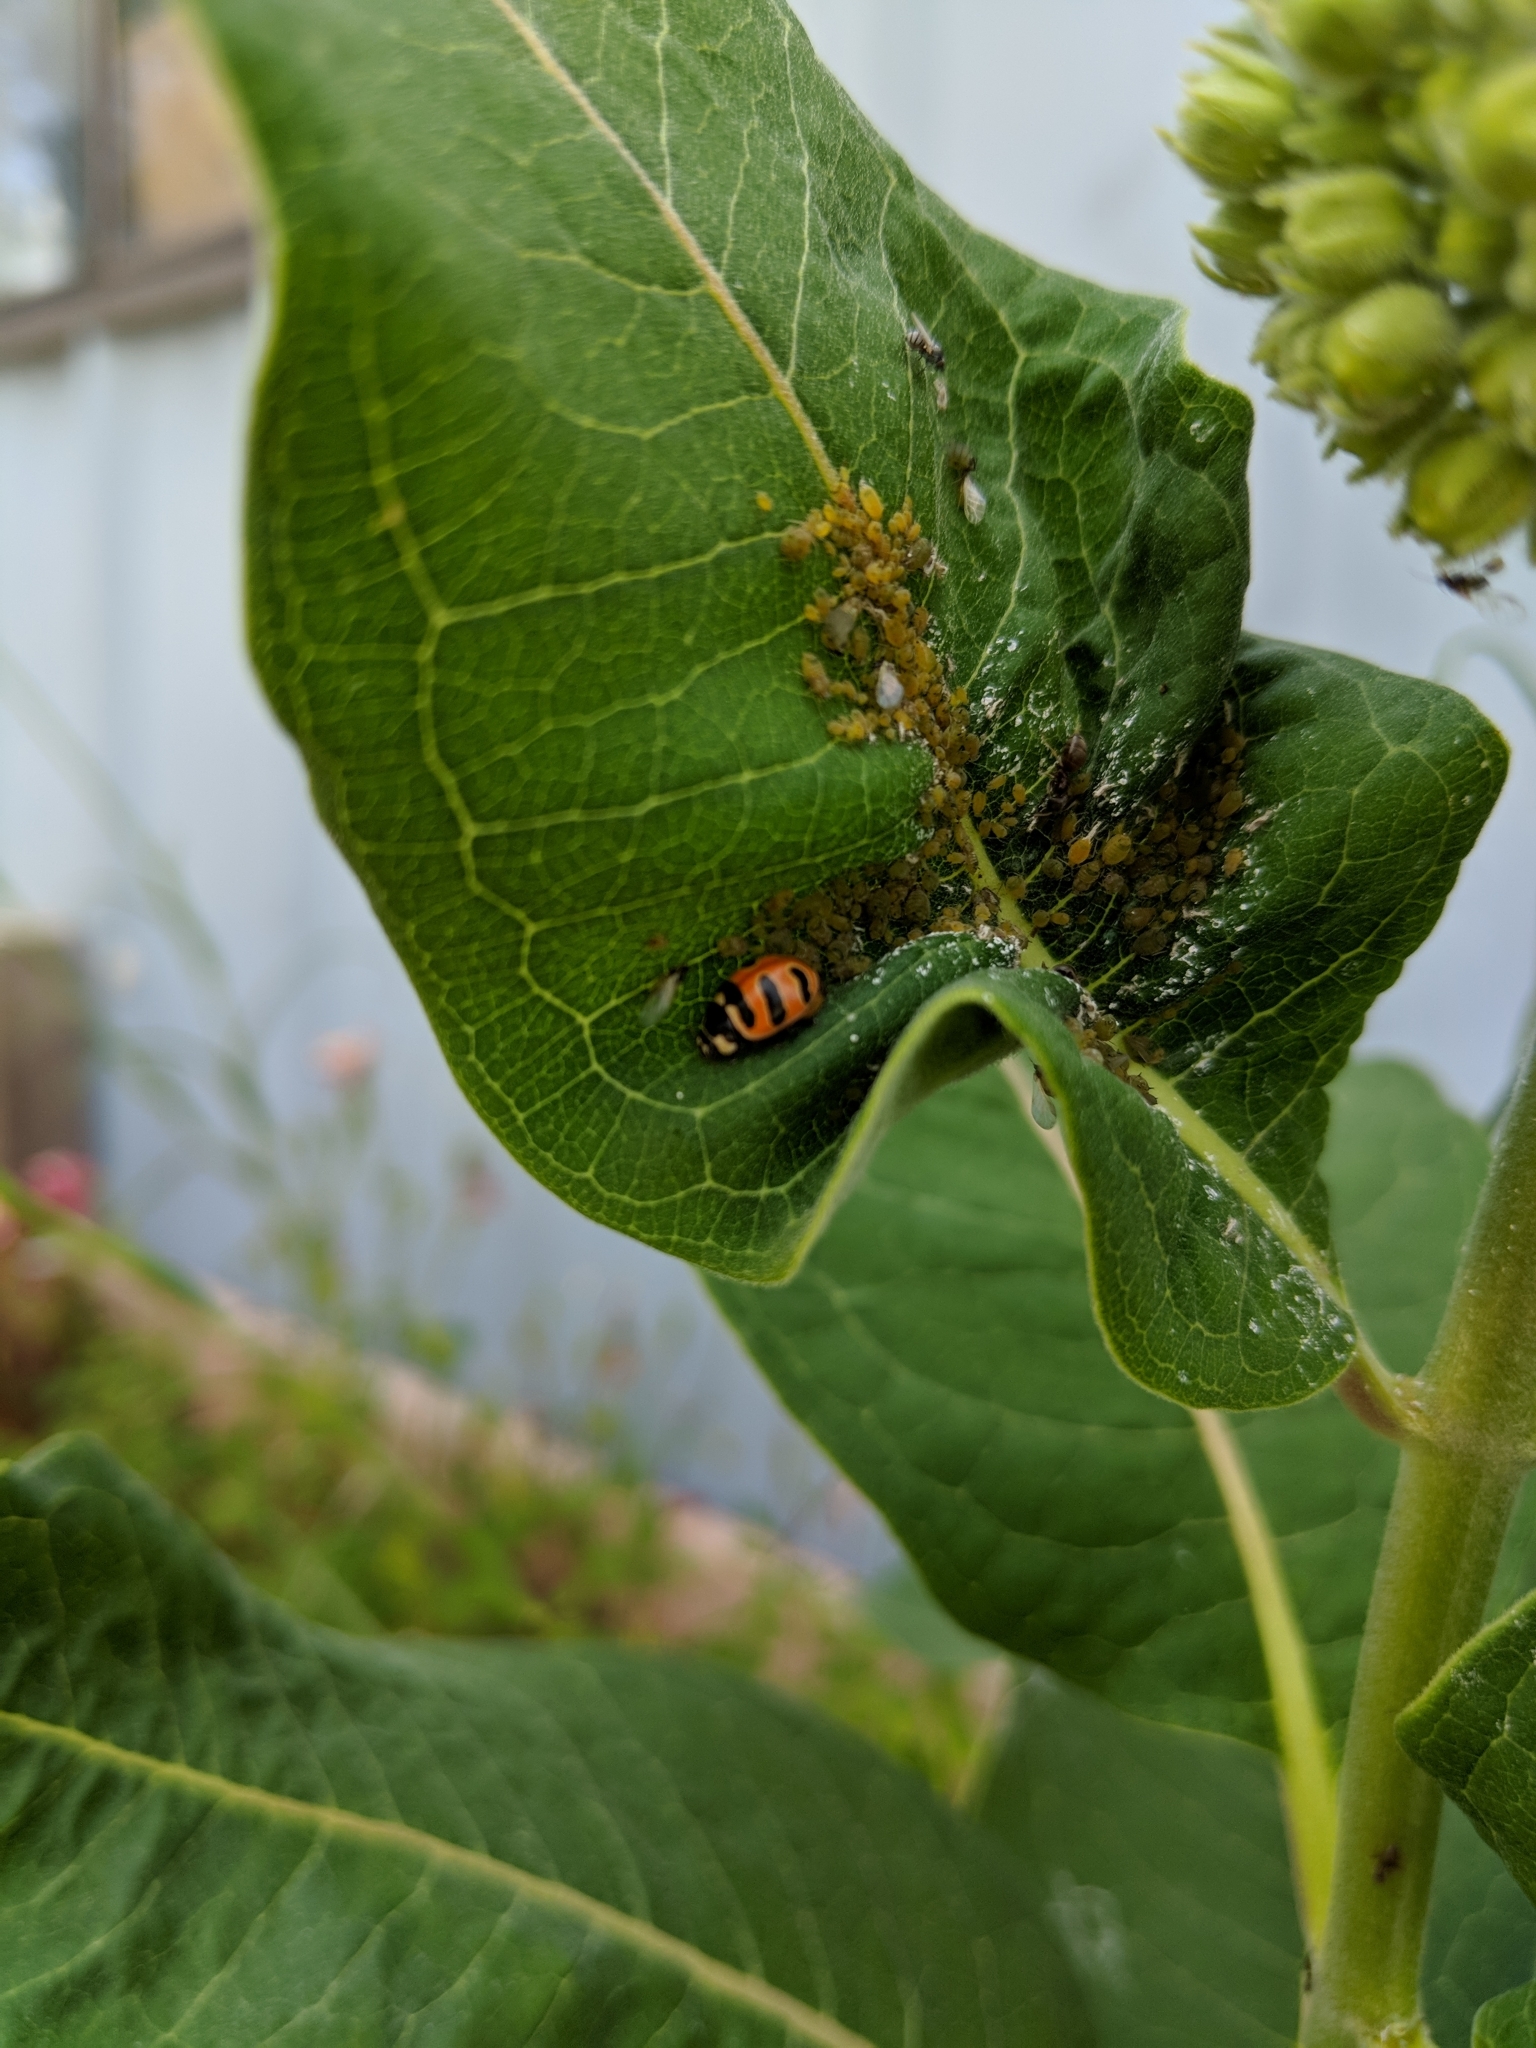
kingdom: Animalia
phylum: Arthropoda
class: Insecta
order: Coleoptera
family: Coccinellidae
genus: Coccinella
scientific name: Coccinella trifasciata
